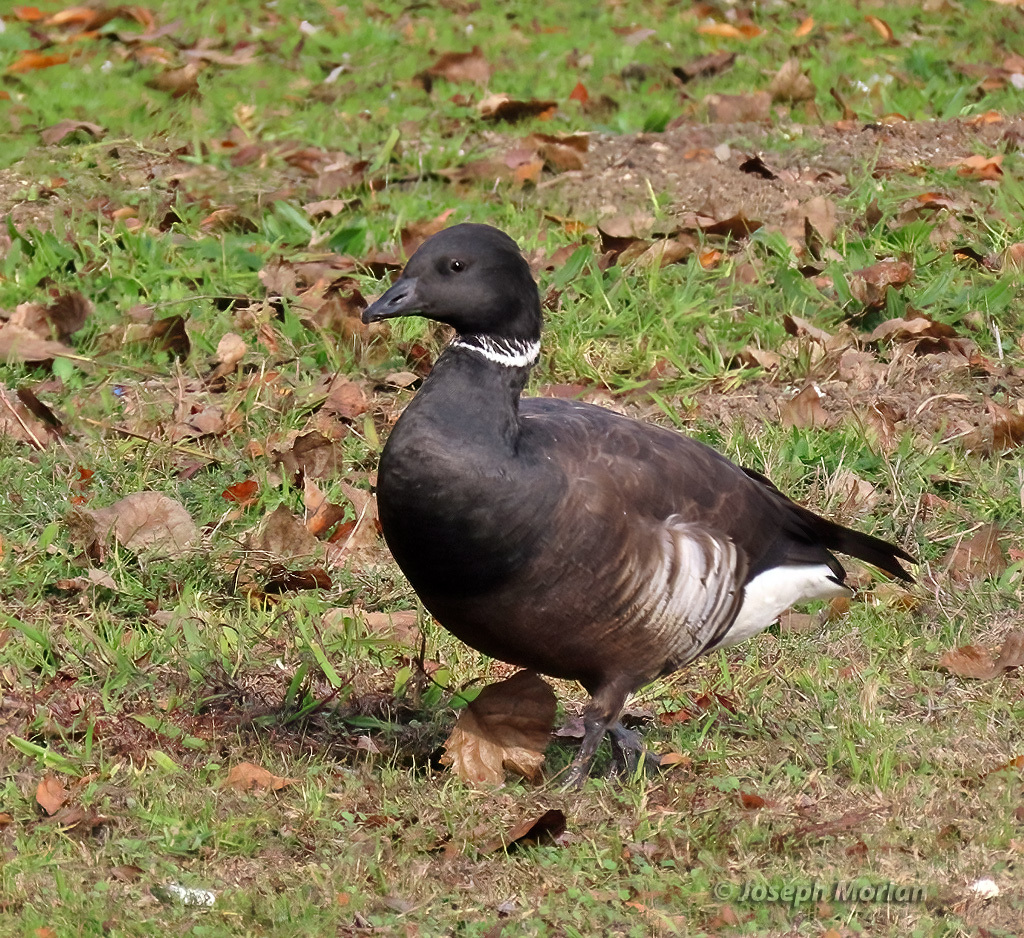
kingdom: Animalia
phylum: Chordata
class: Aves
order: Anseriformes
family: Anatidae
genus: Branta
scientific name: Branta bernicla
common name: Brant goose
